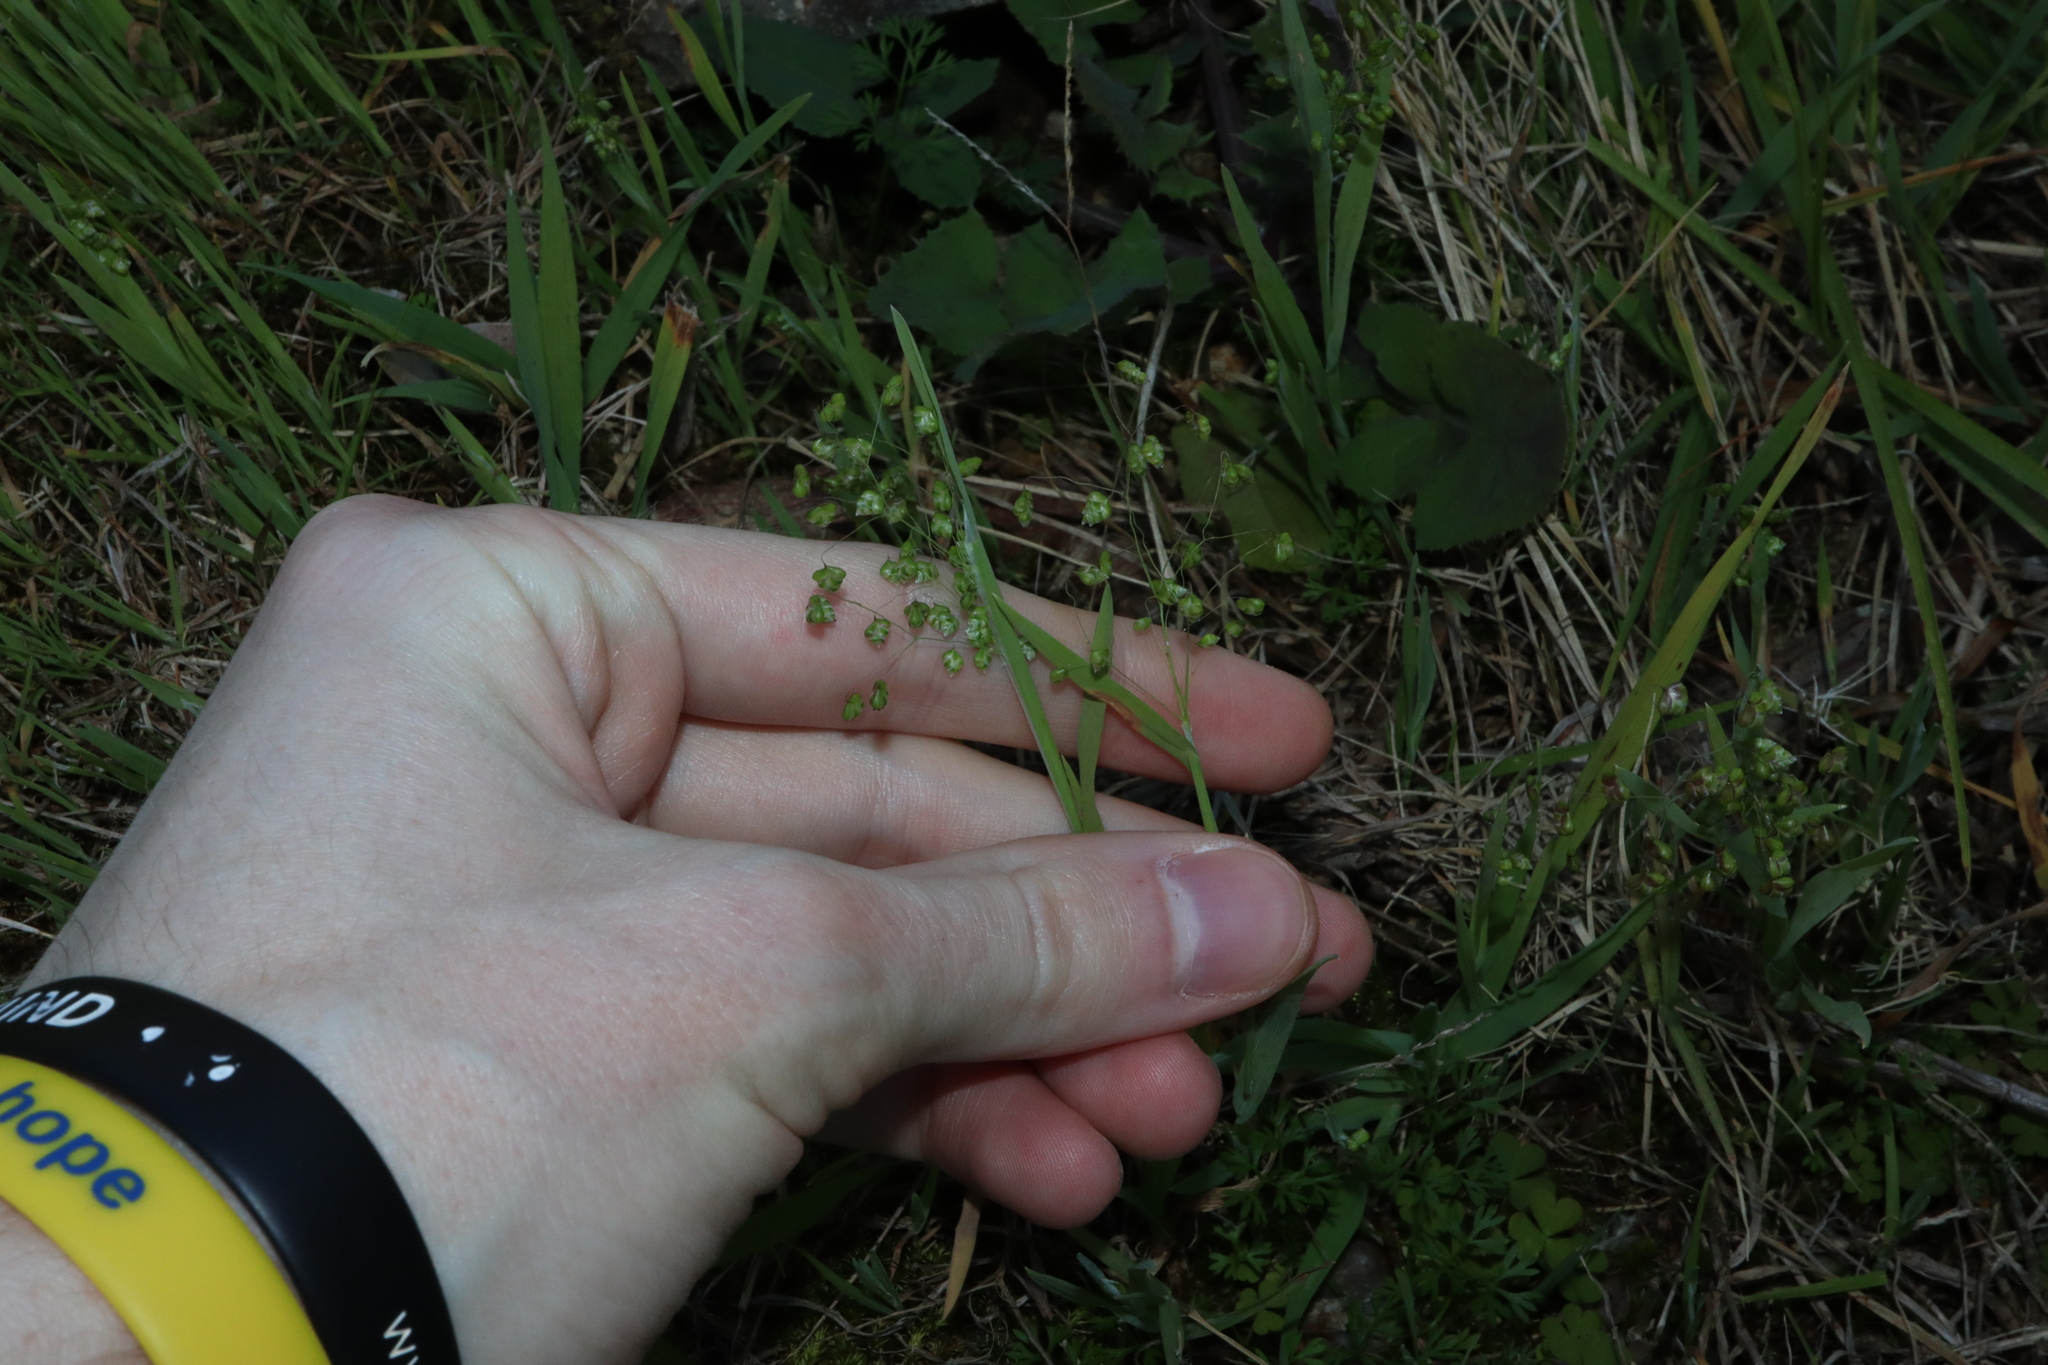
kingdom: Plantae
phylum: Tracheophyta
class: Liliopsida
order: Poales
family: Poaceae
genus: Briza
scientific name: Briza minor
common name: Lesser quaking-grass
